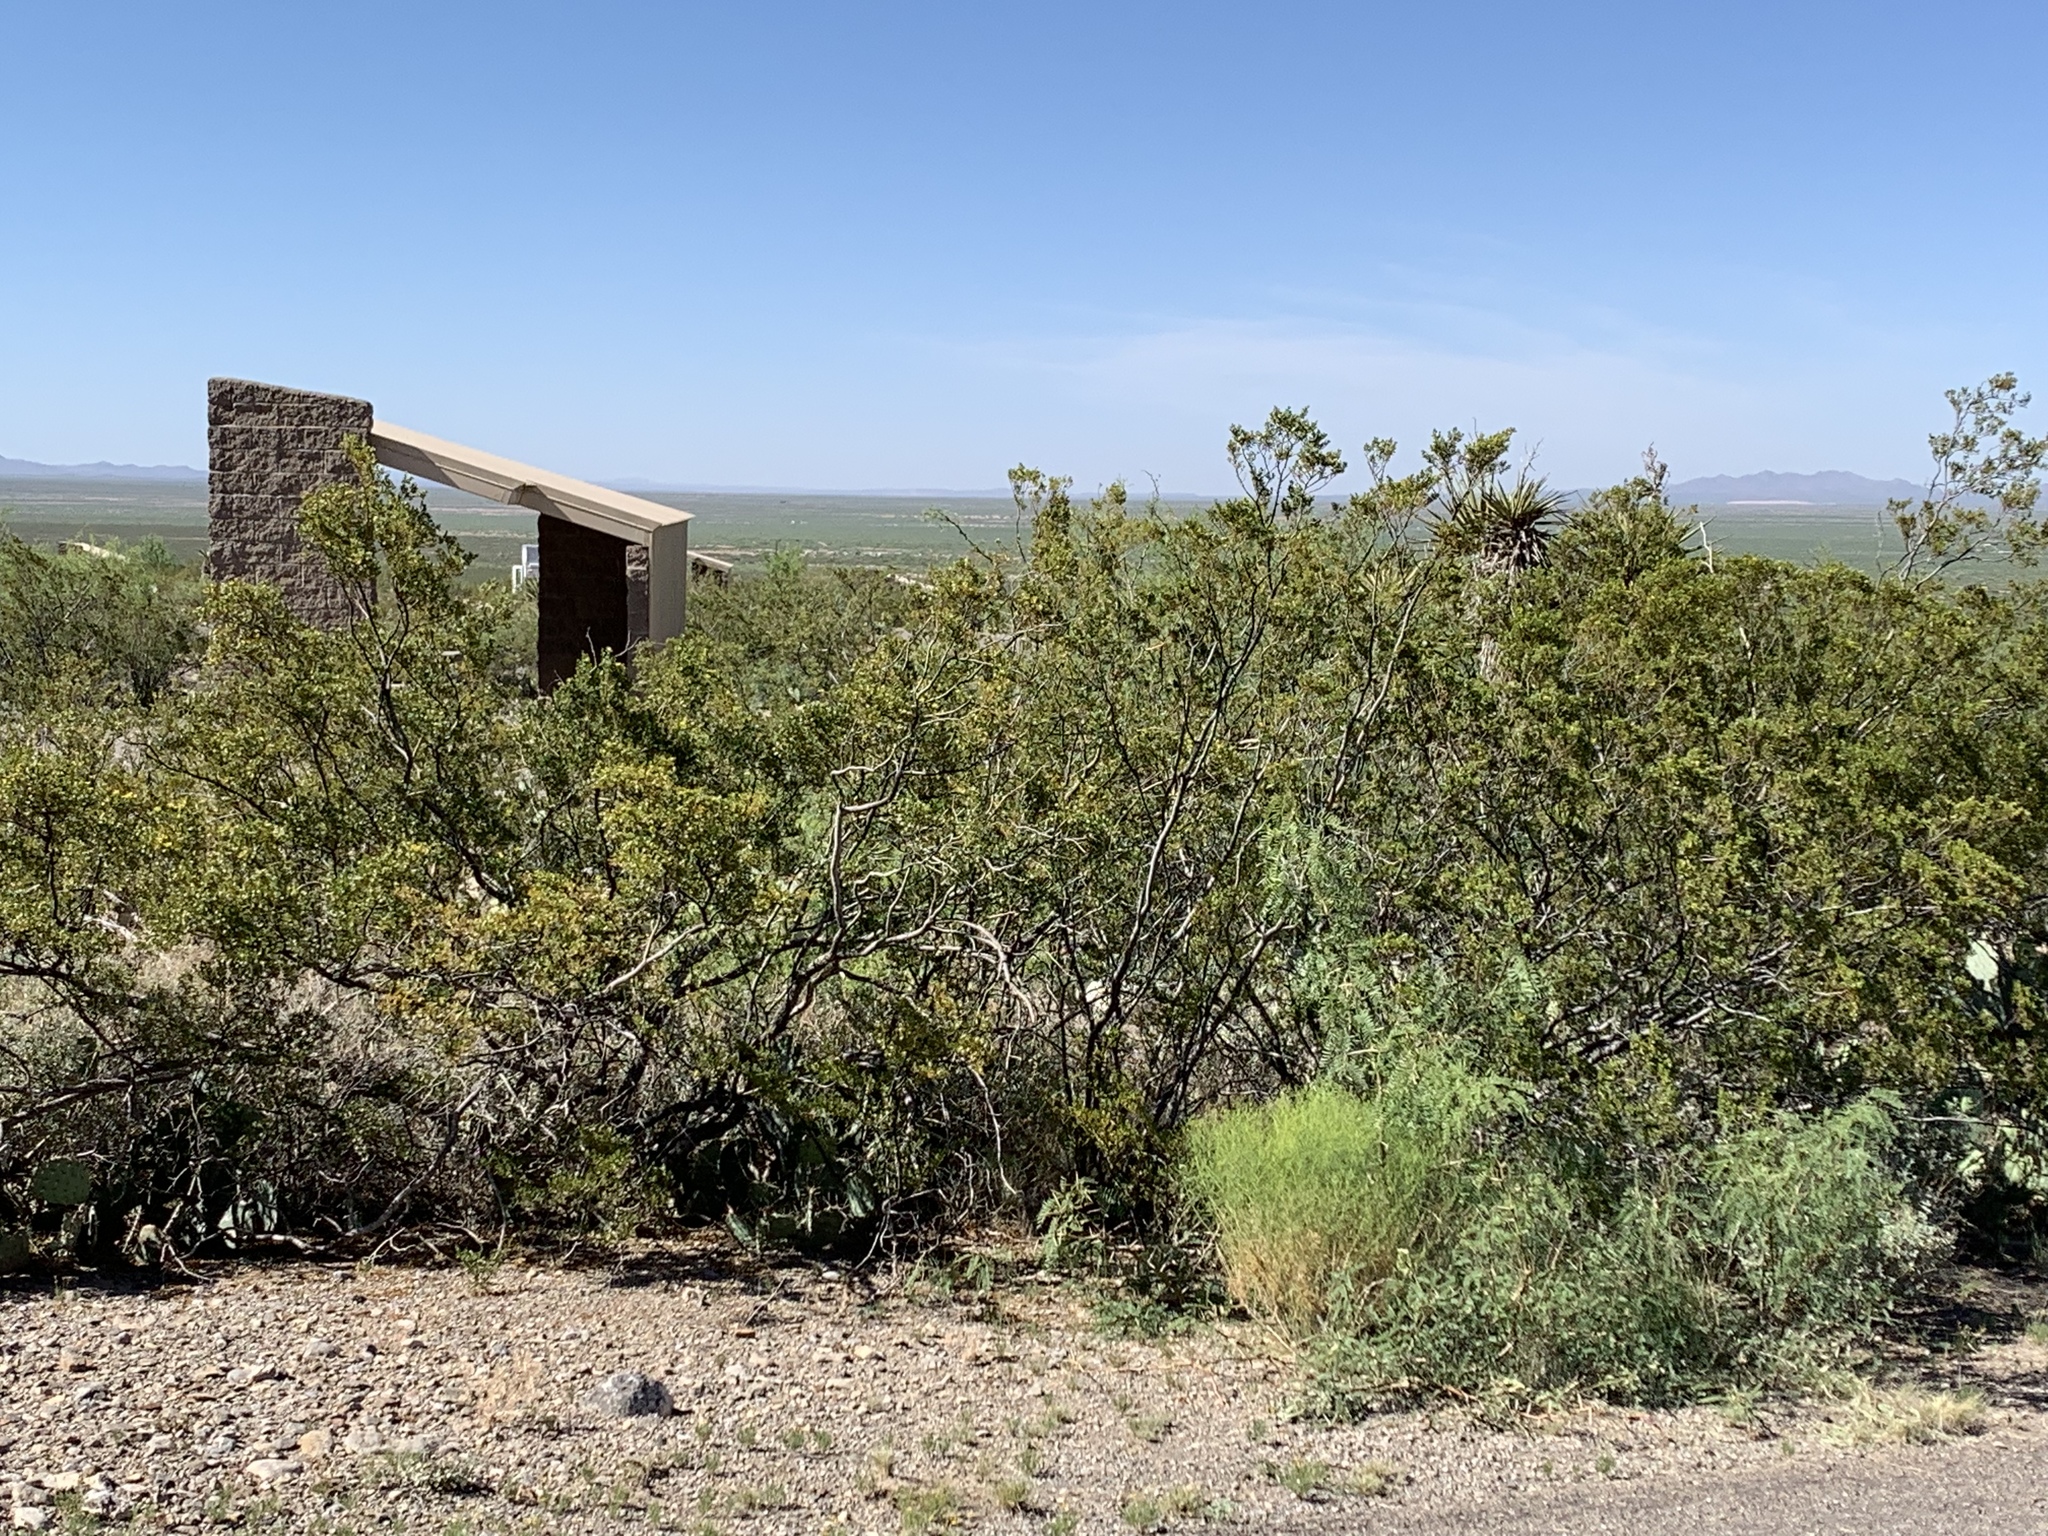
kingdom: Plantae
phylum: Tracheophyta
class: Magnoliopsida
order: Zygophyllales
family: Zygophyllaceae
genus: Larrea
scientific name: Larrea tridentata
